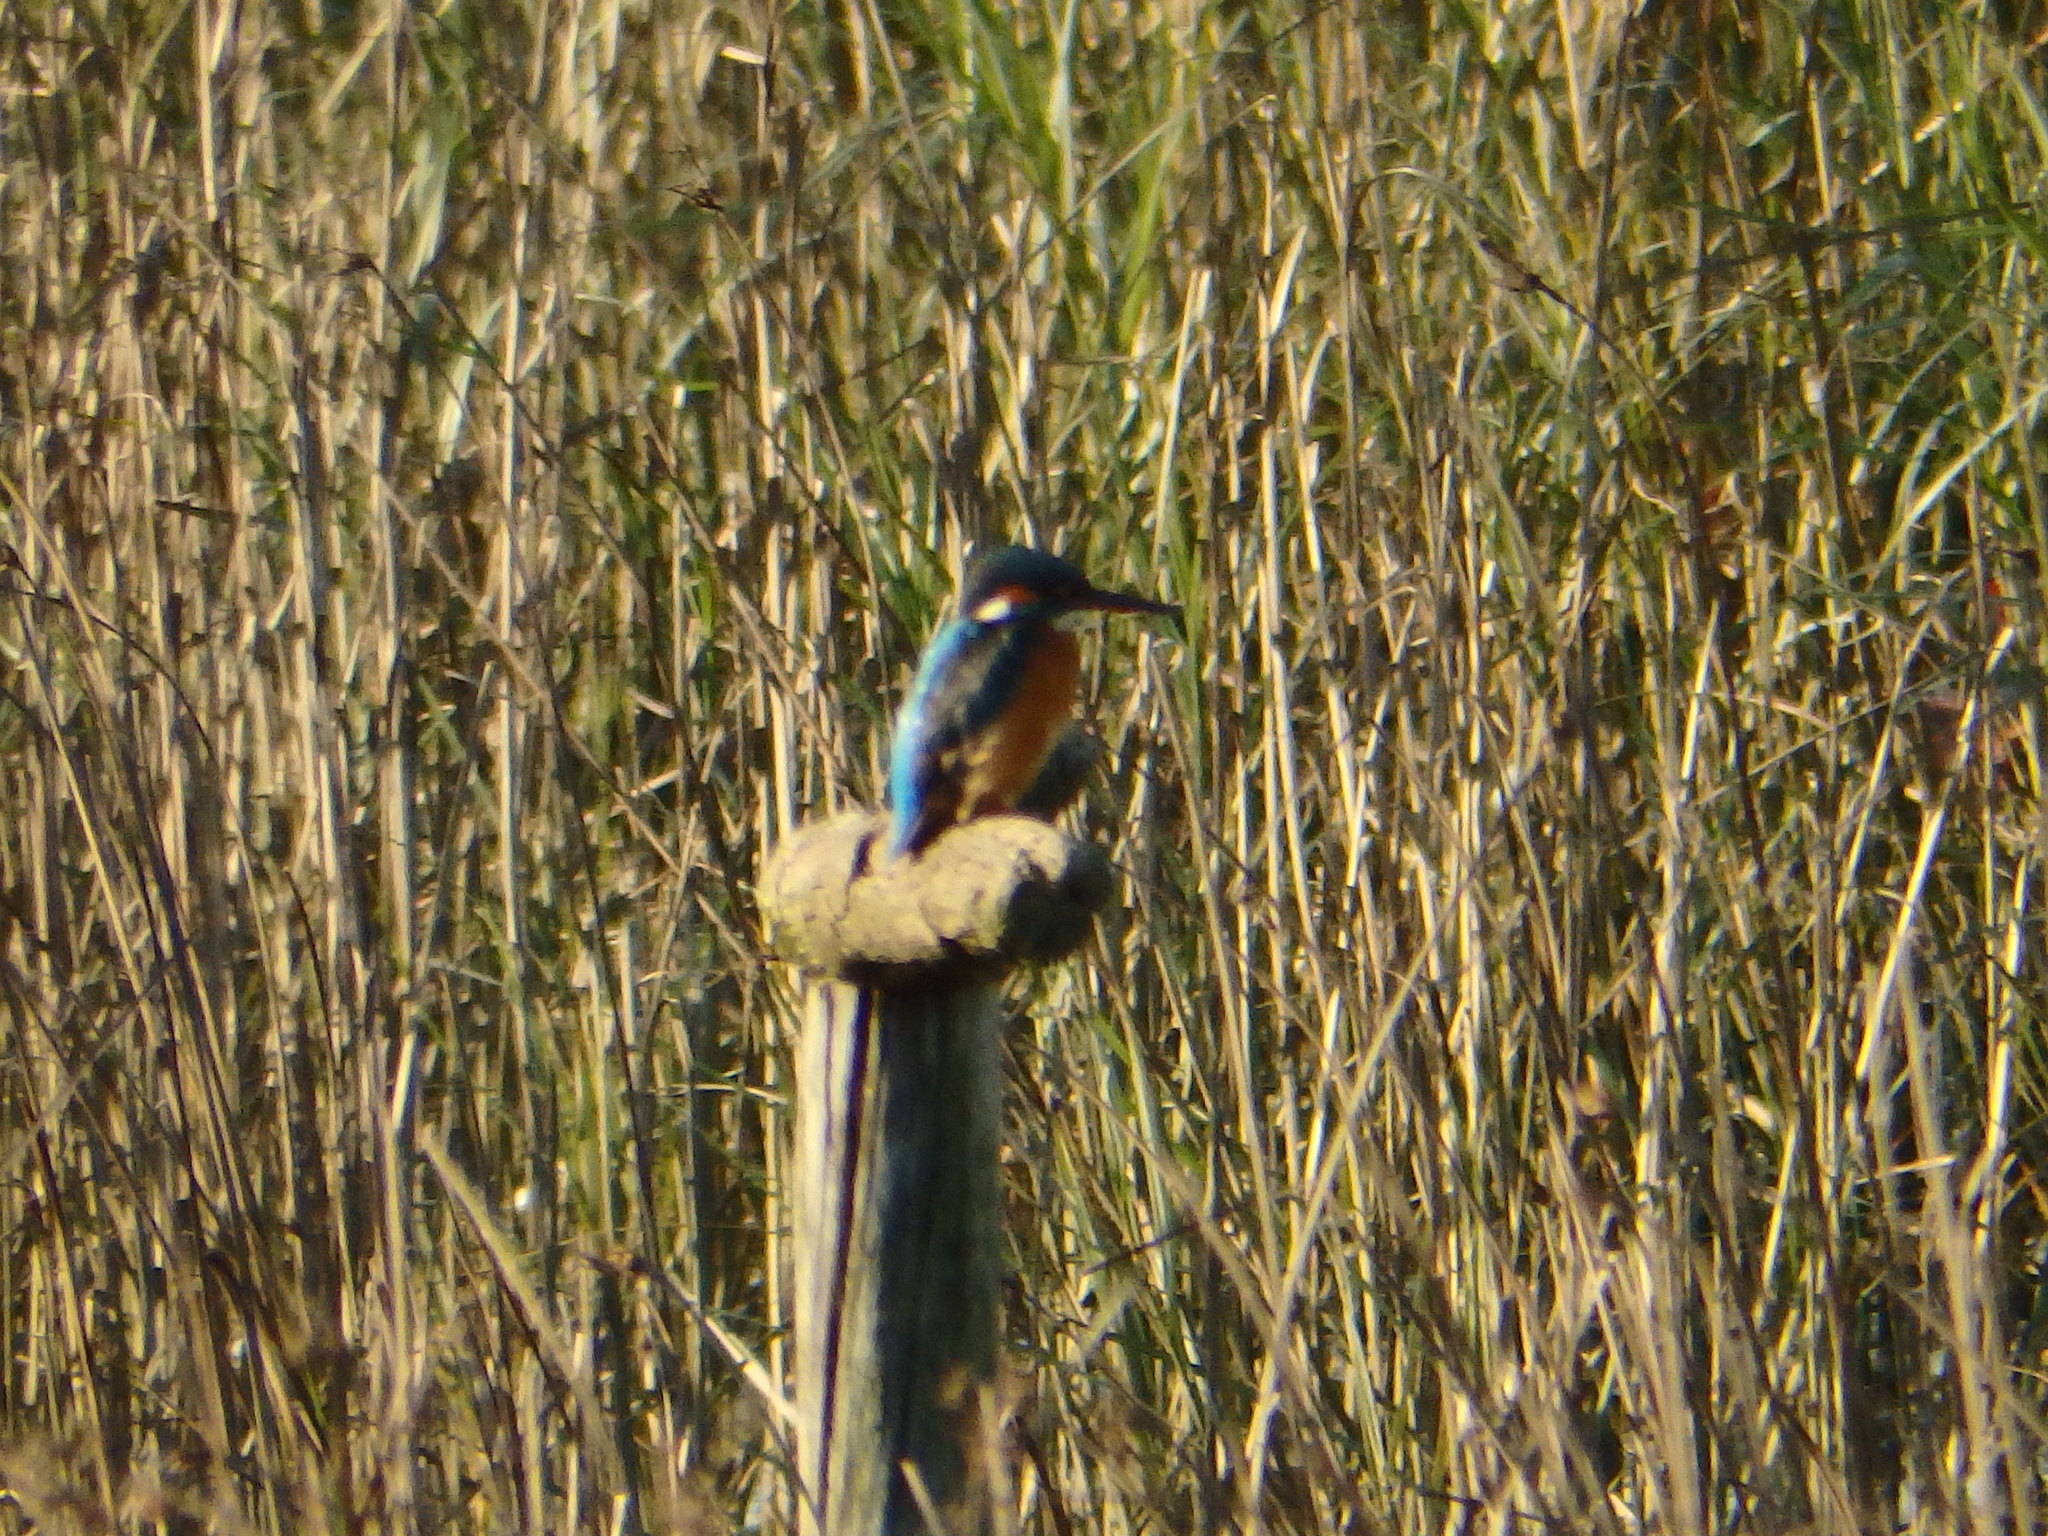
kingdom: Animalia
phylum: Chordata
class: Aves
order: Coraciiformes
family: Alcedinidae
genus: Alcedo
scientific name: Alcedo atthis
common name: Common kingfisher
